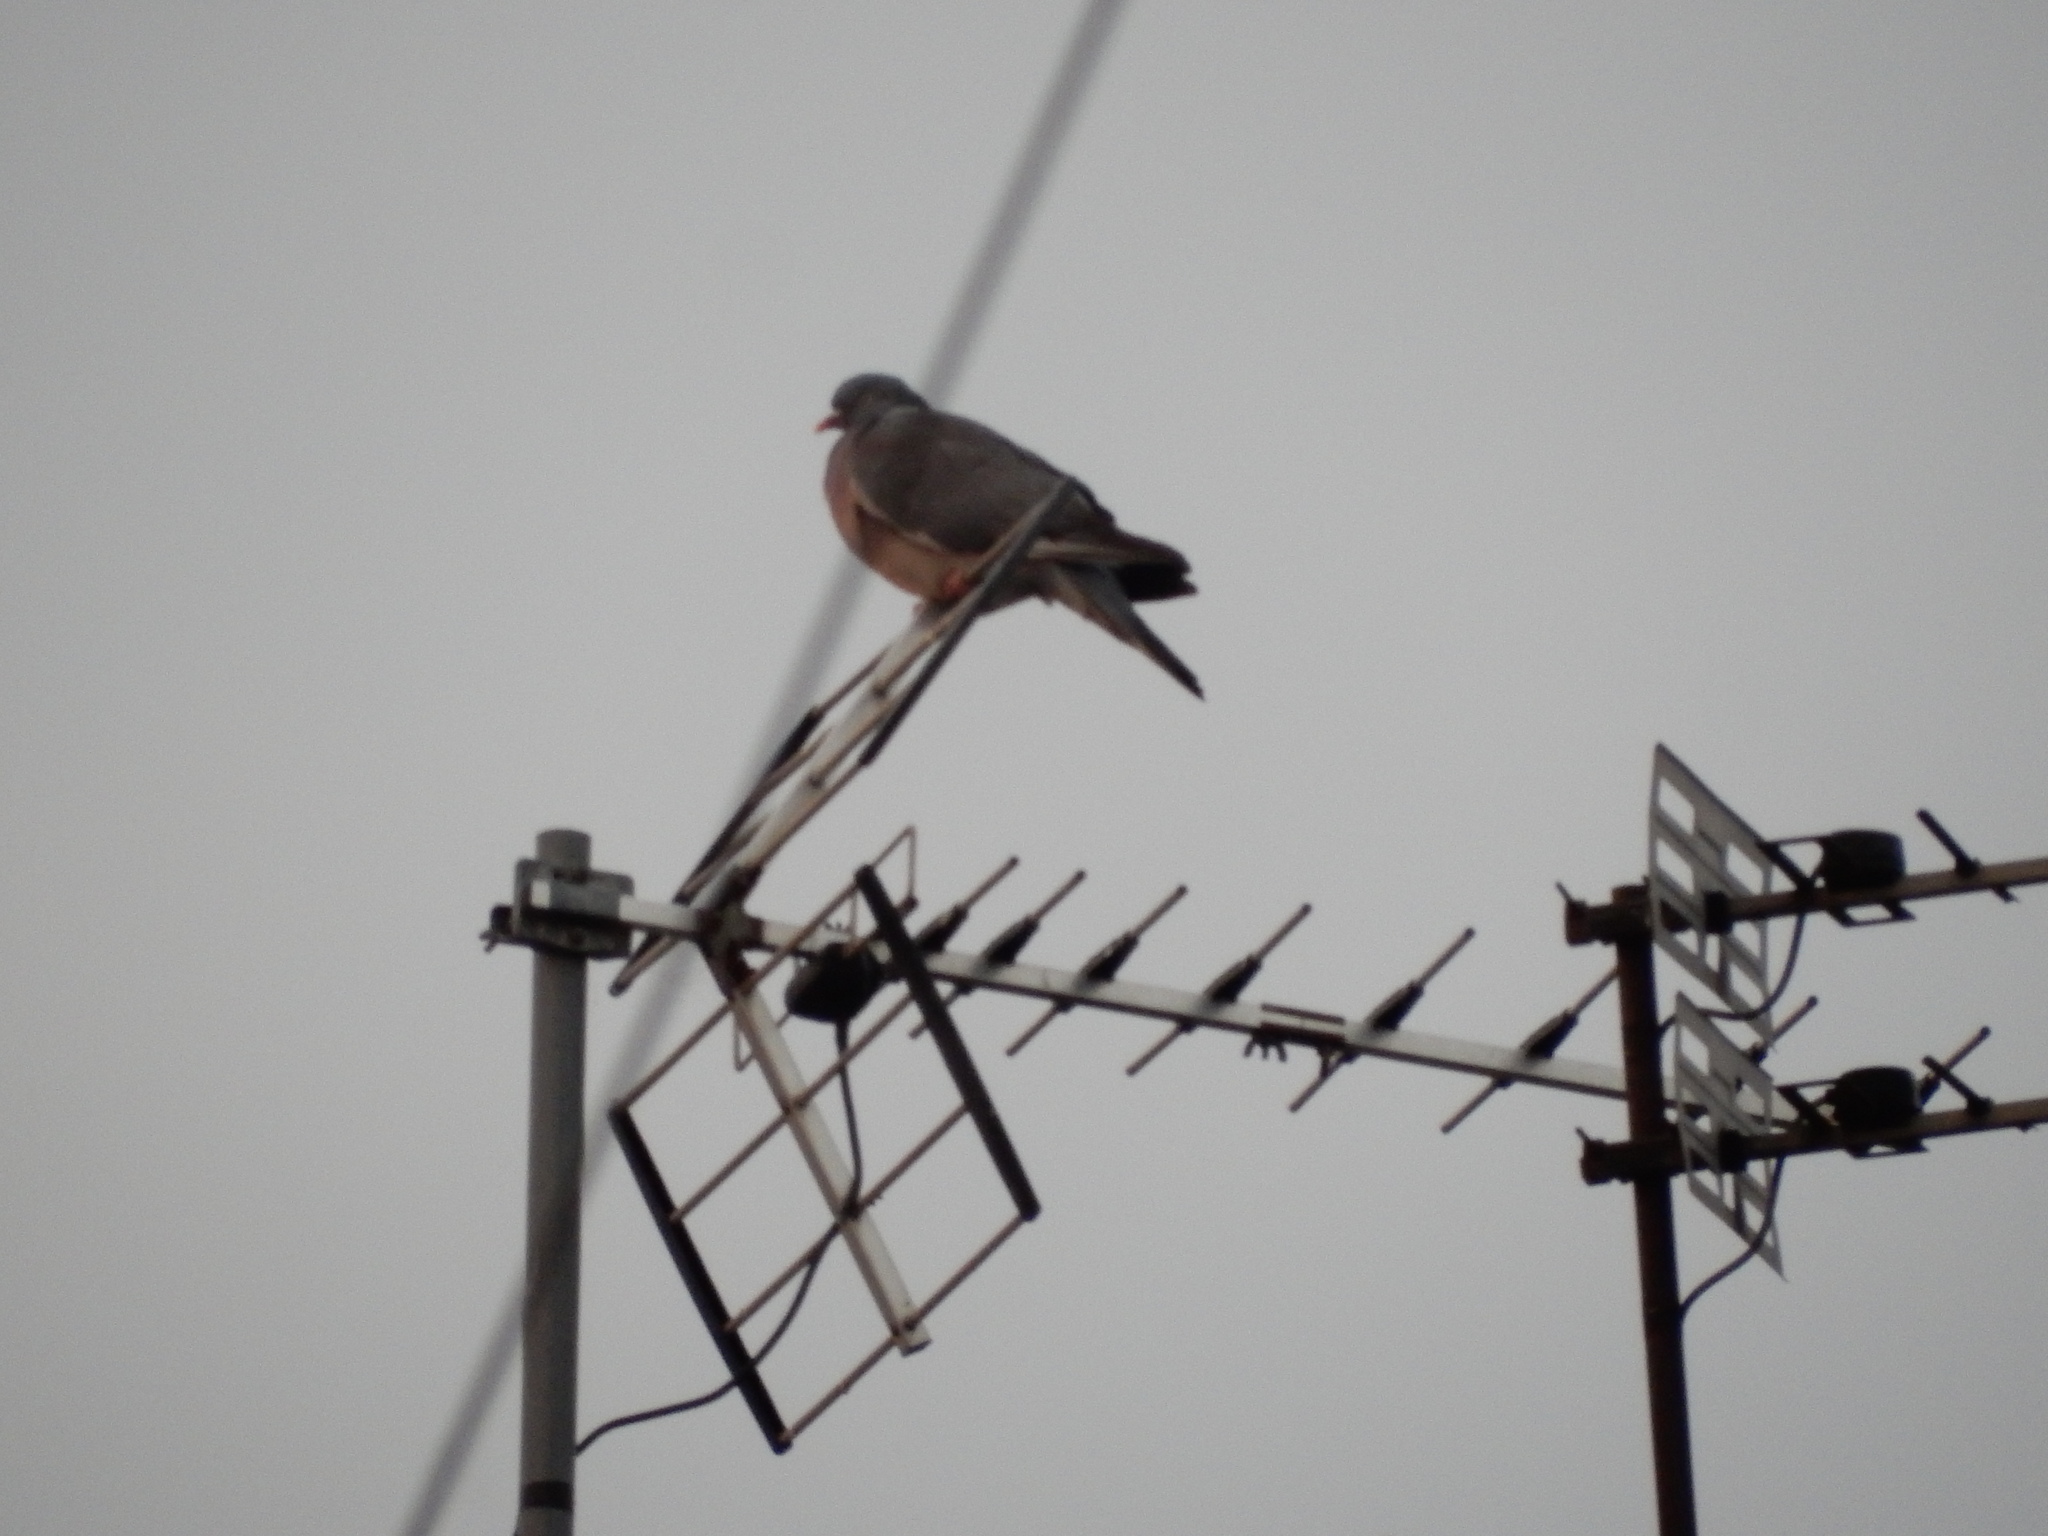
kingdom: Animalia
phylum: Chordata
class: Aves
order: Columbiformes
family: Columbidae
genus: Columba
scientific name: Columba palumbus
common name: Common wood pigeon
